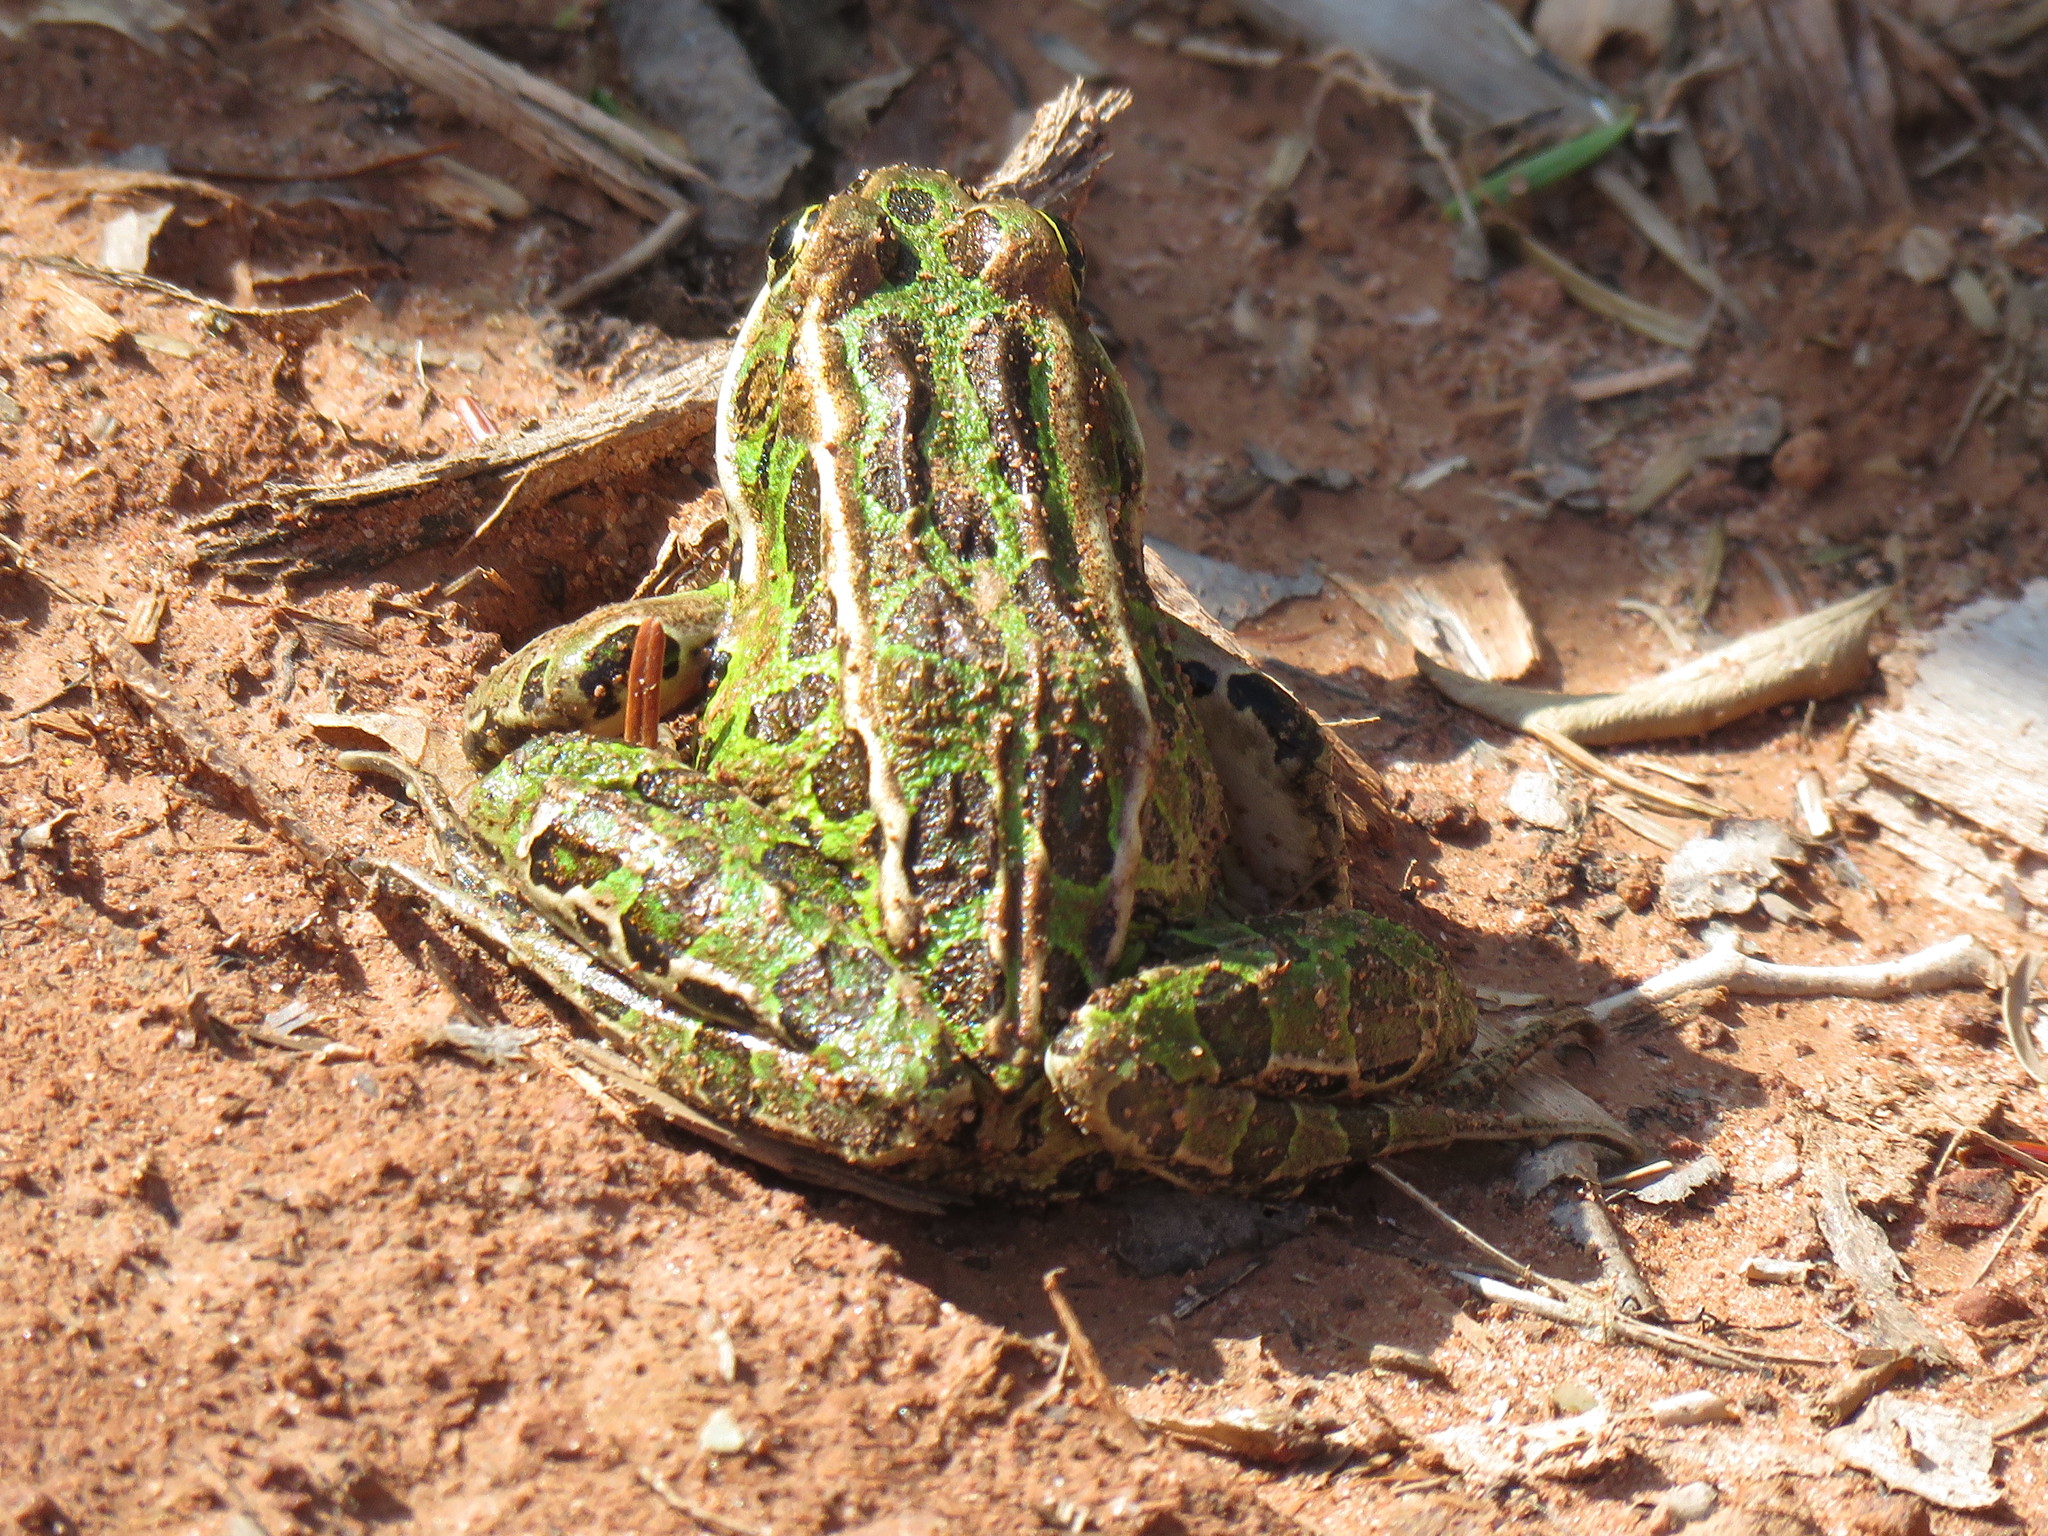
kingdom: Animalia
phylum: Chordata
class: Amphibia
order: Anura
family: Ranidae
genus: Lithobates
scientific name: Lithobates pipiens
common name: Northern leopard frog
